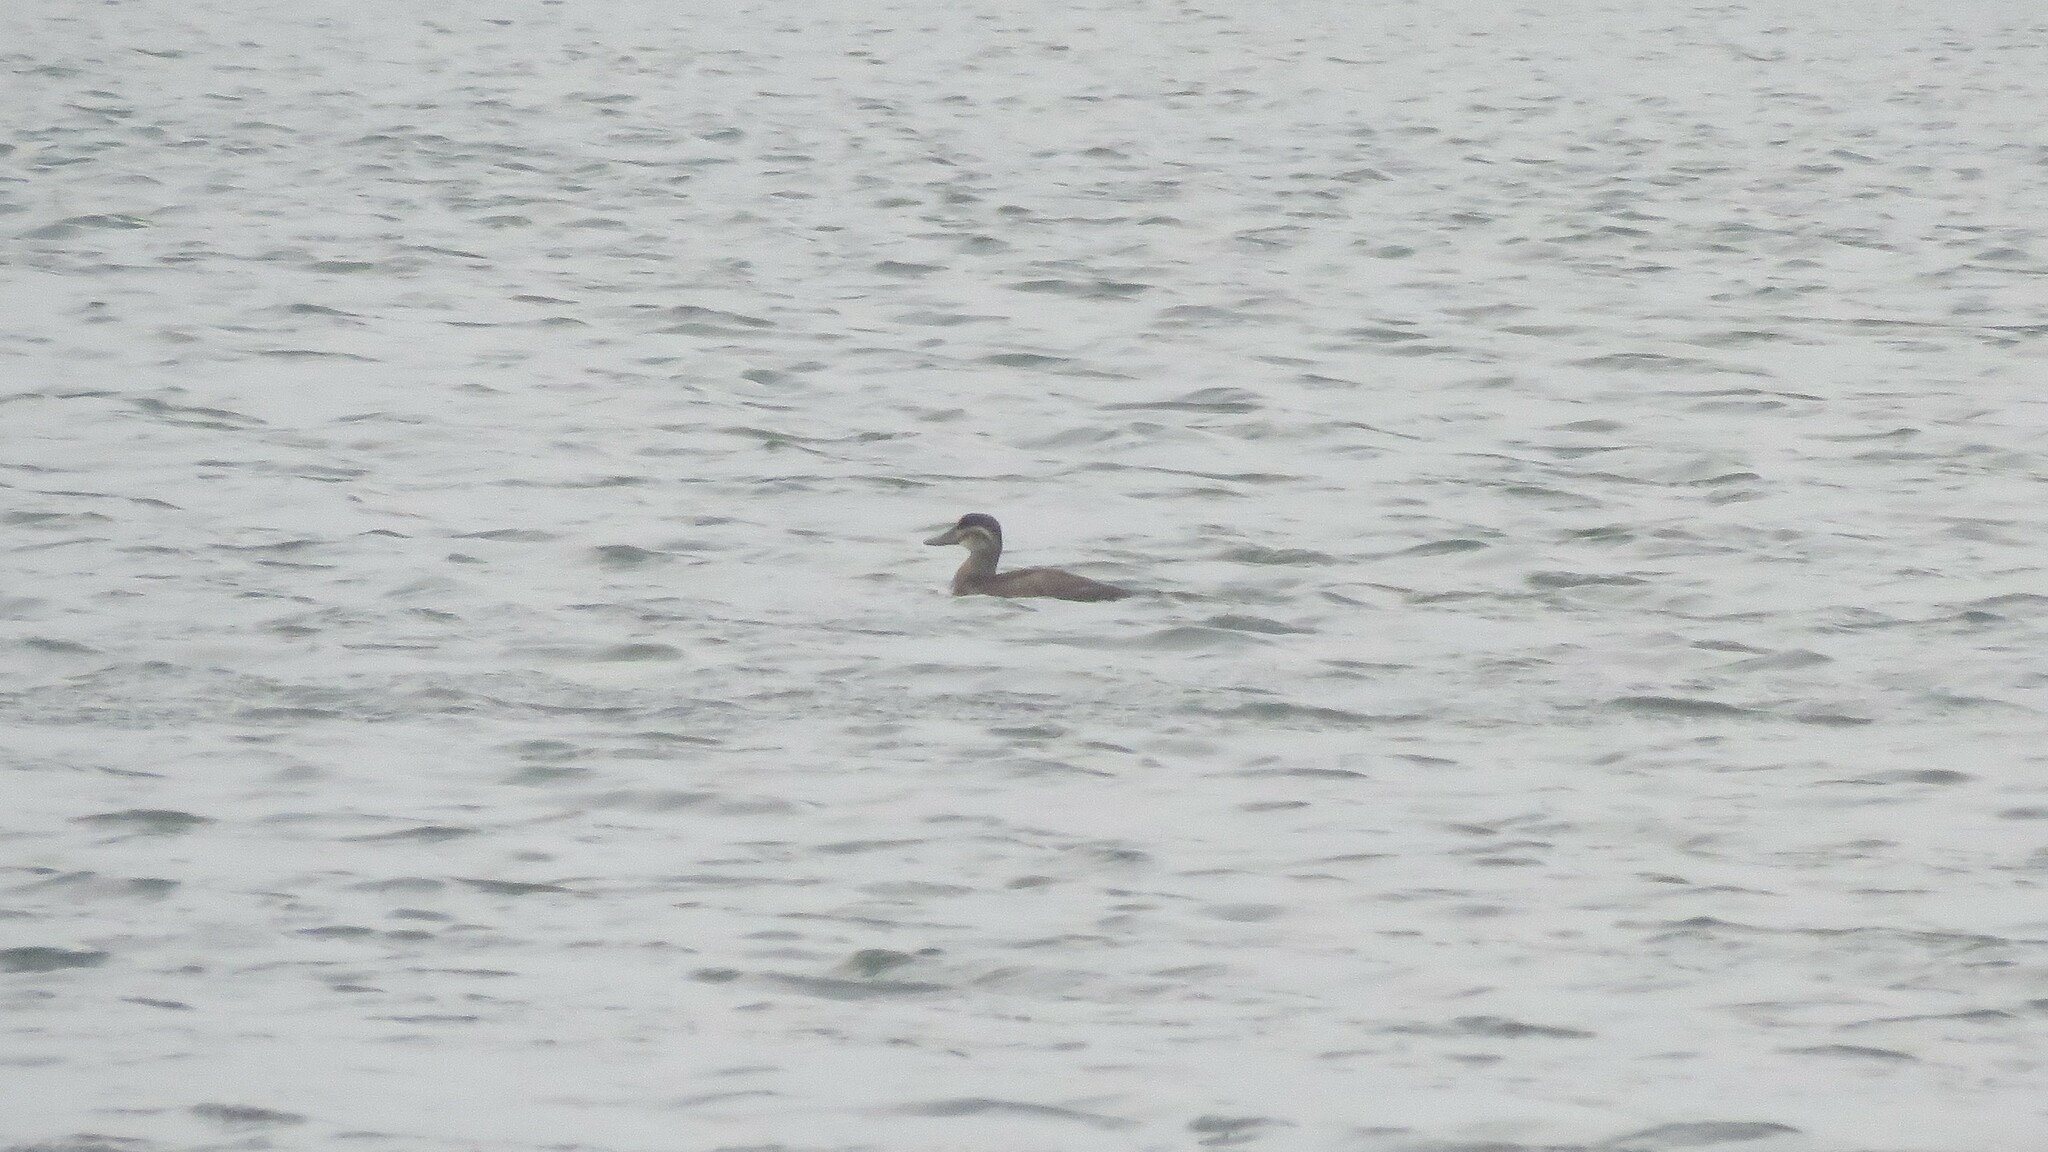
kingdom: Animalia
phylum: Chordata
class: Aves
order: Anseriformes
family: Anatidae
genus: Oxyura
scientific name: Oxyura jamaicensis
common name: Ruddy duck
